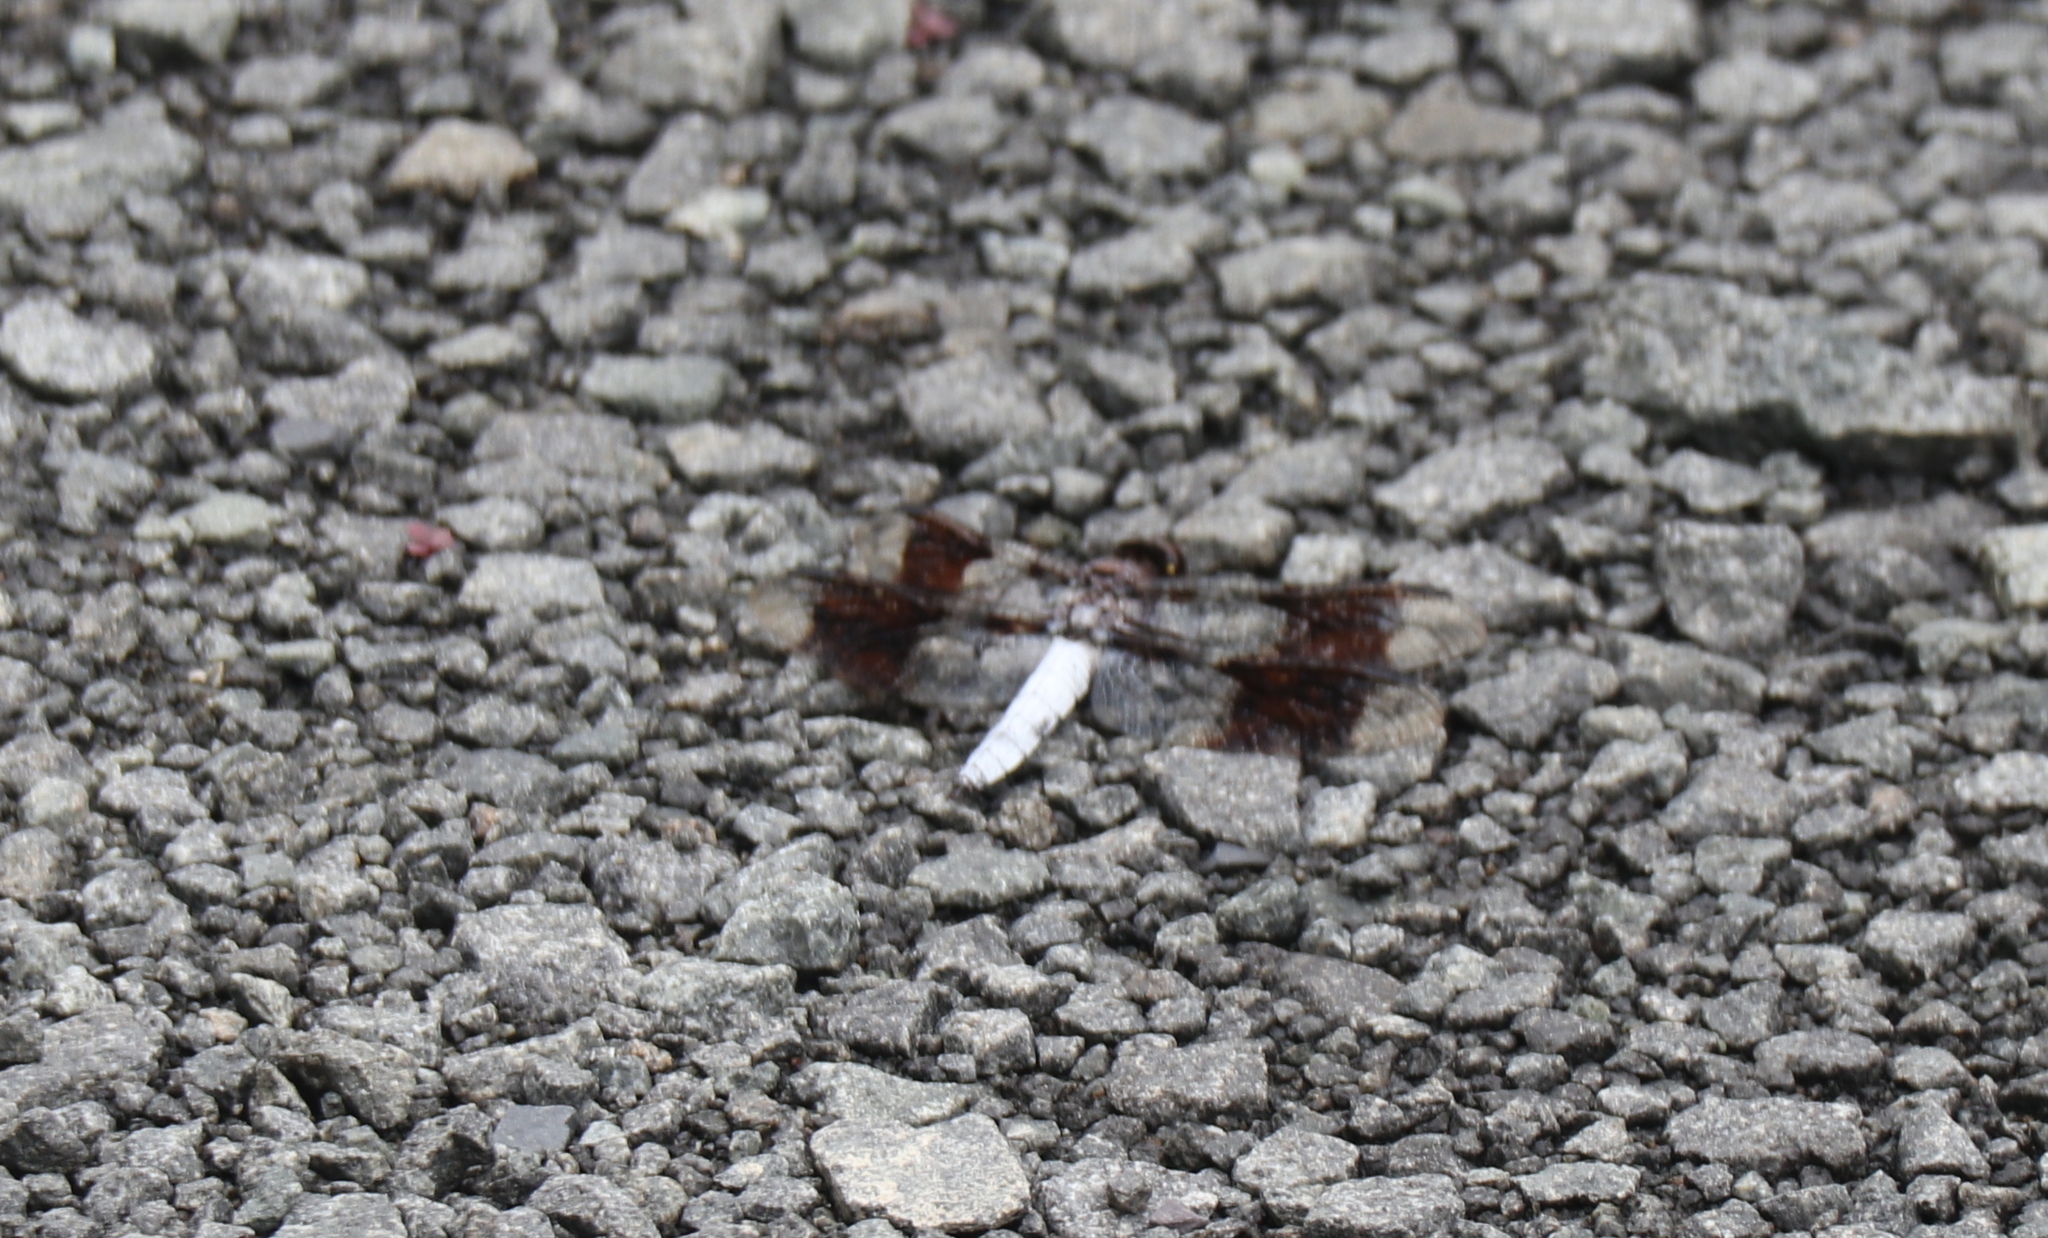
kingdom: Animalia
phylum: Arthropoda
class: Insecta
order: Odonata
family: Libellulidae
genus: Plathemis
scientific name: Plathemis lydia
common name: Common whitetail
